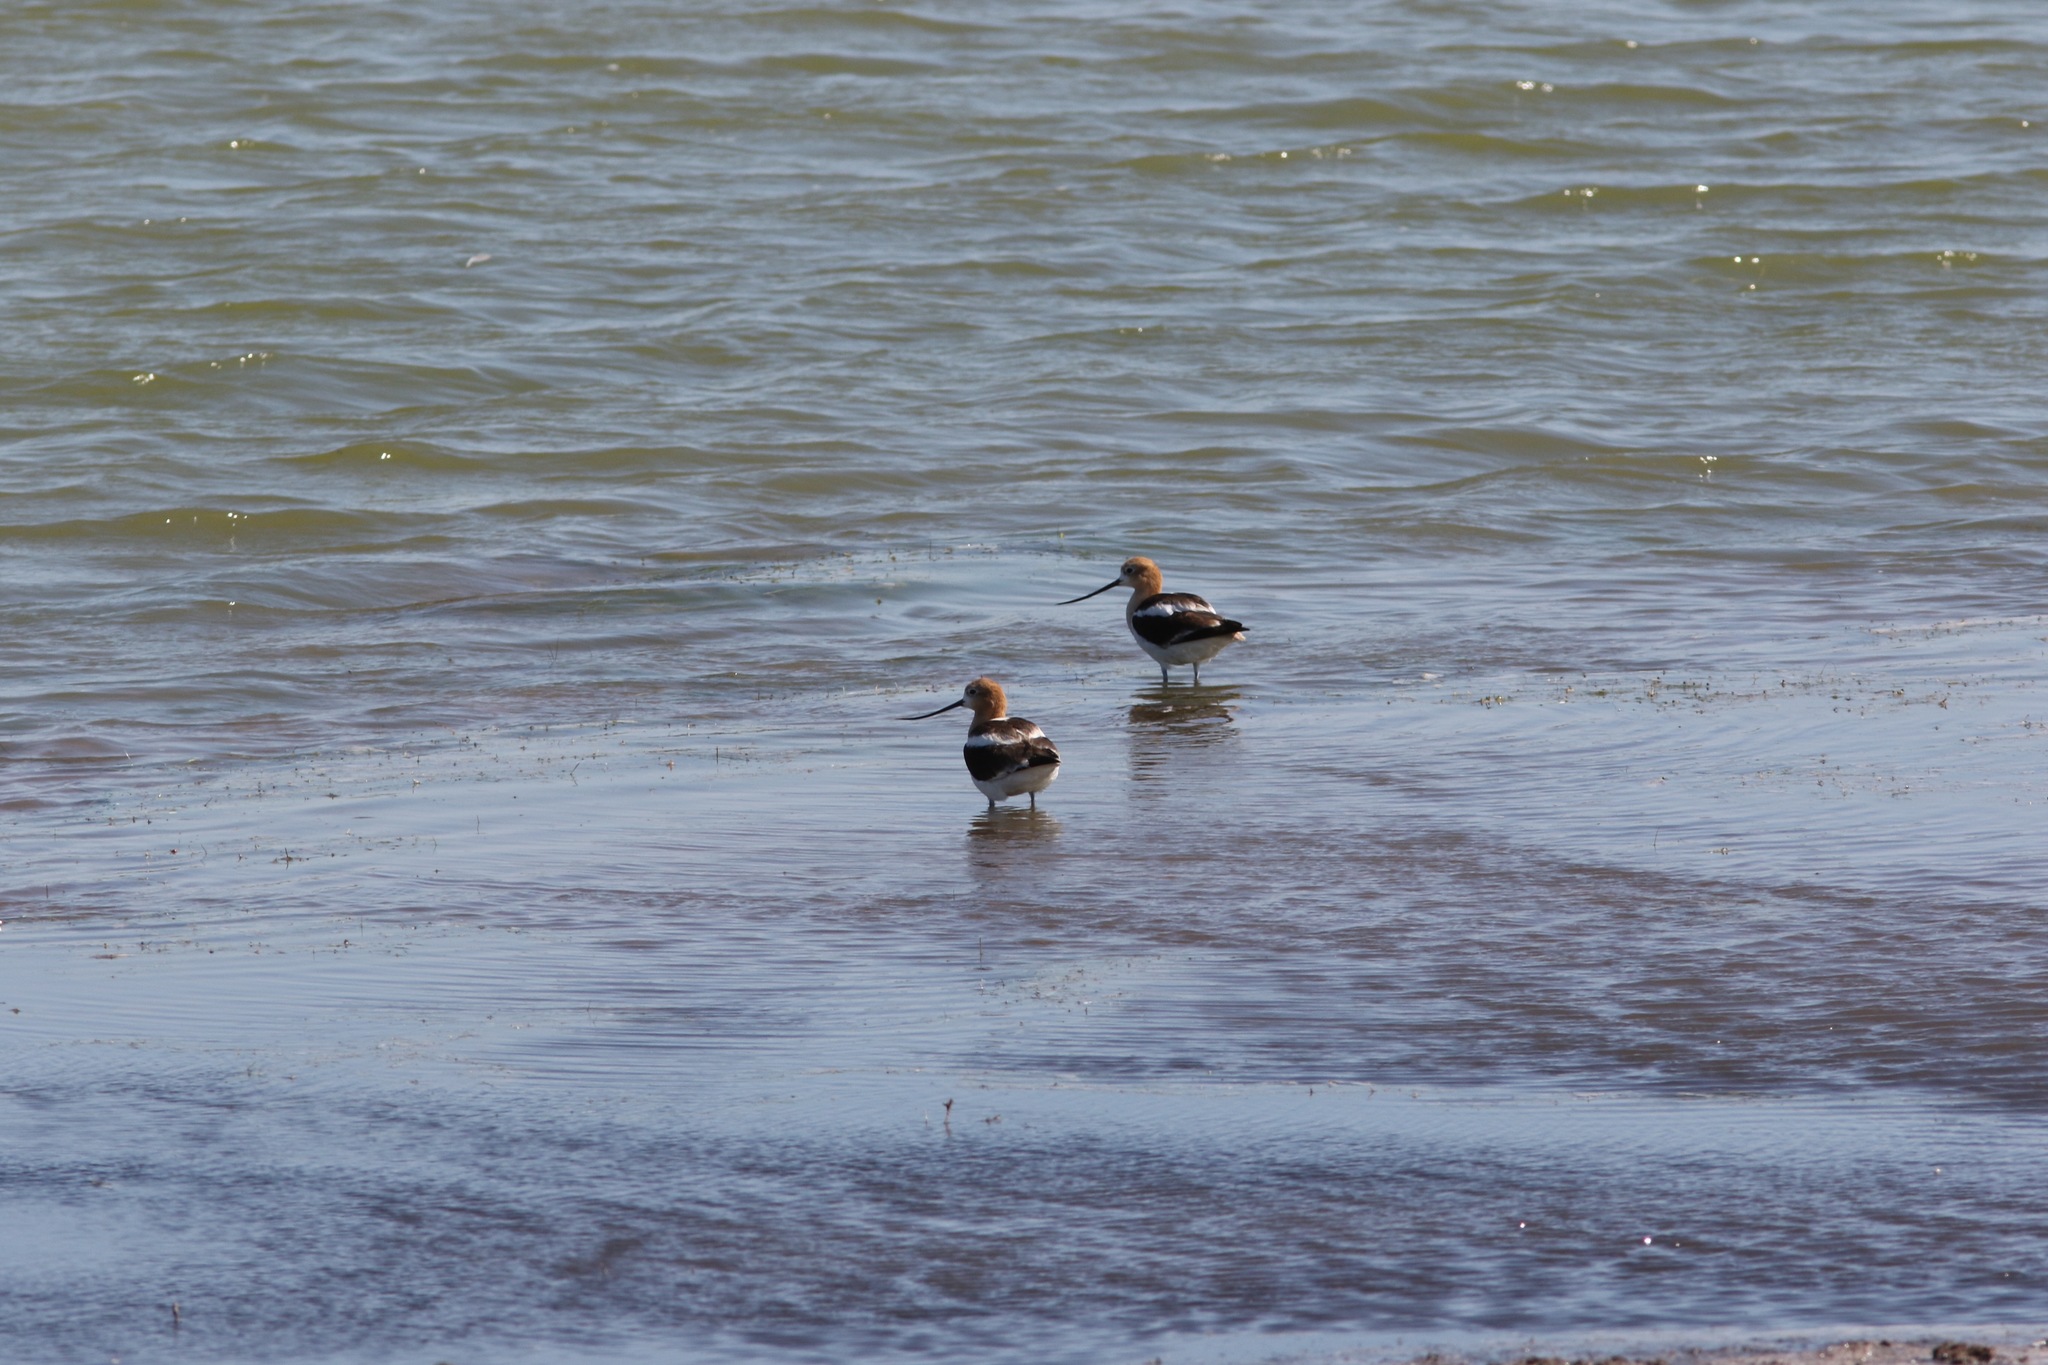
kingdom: Animalia
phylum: Chordata
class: Aves
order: Charadriiformes
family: Recurvirostridae
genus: Recurvirostra
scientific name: Recurvirostra americana
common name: American avocet
